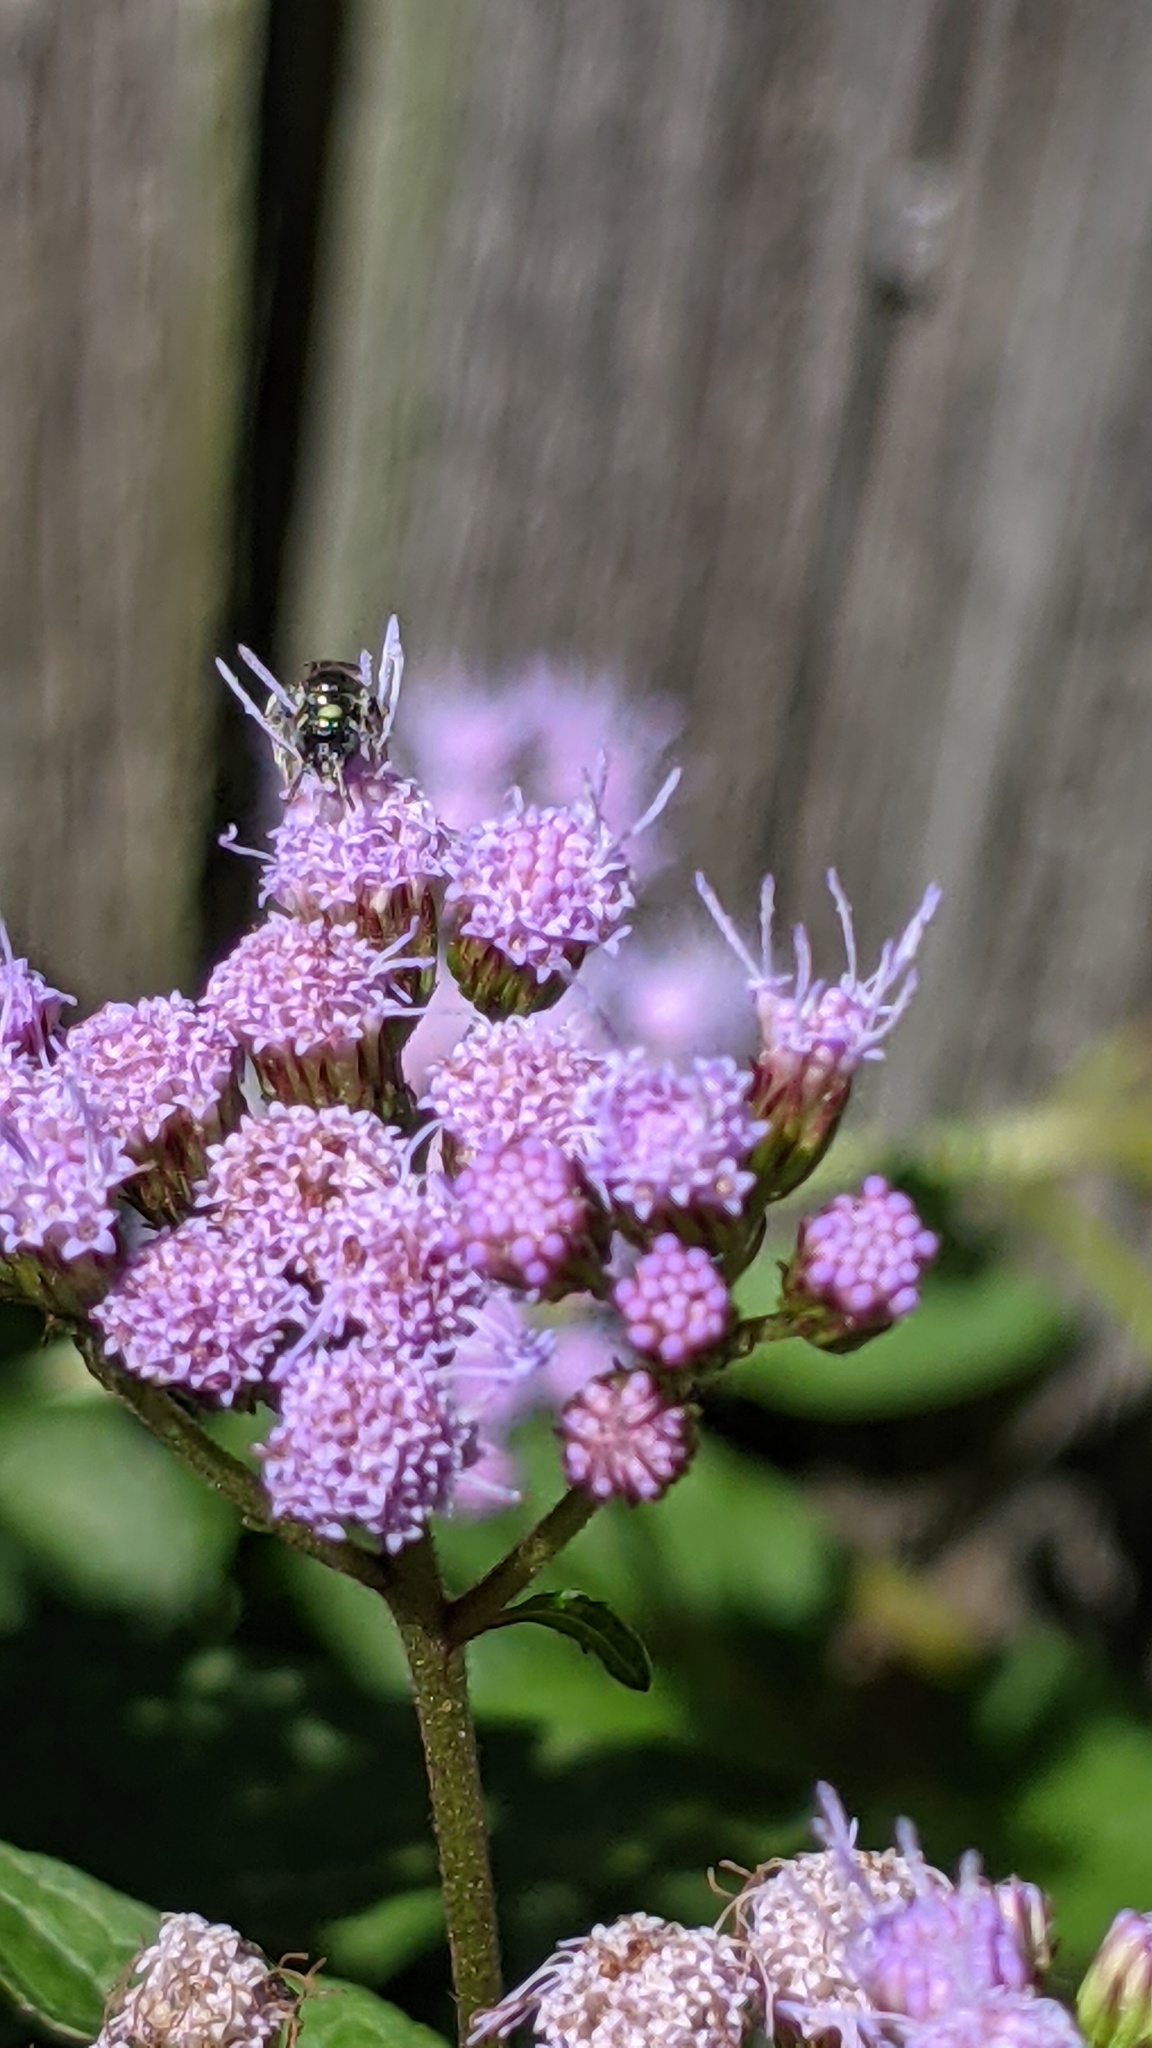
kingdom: Animalia
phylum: Arthropoda
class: Insecta
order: Hymenoptera
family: Apidae
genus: Zadontomerus
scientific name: Zadontomerus
